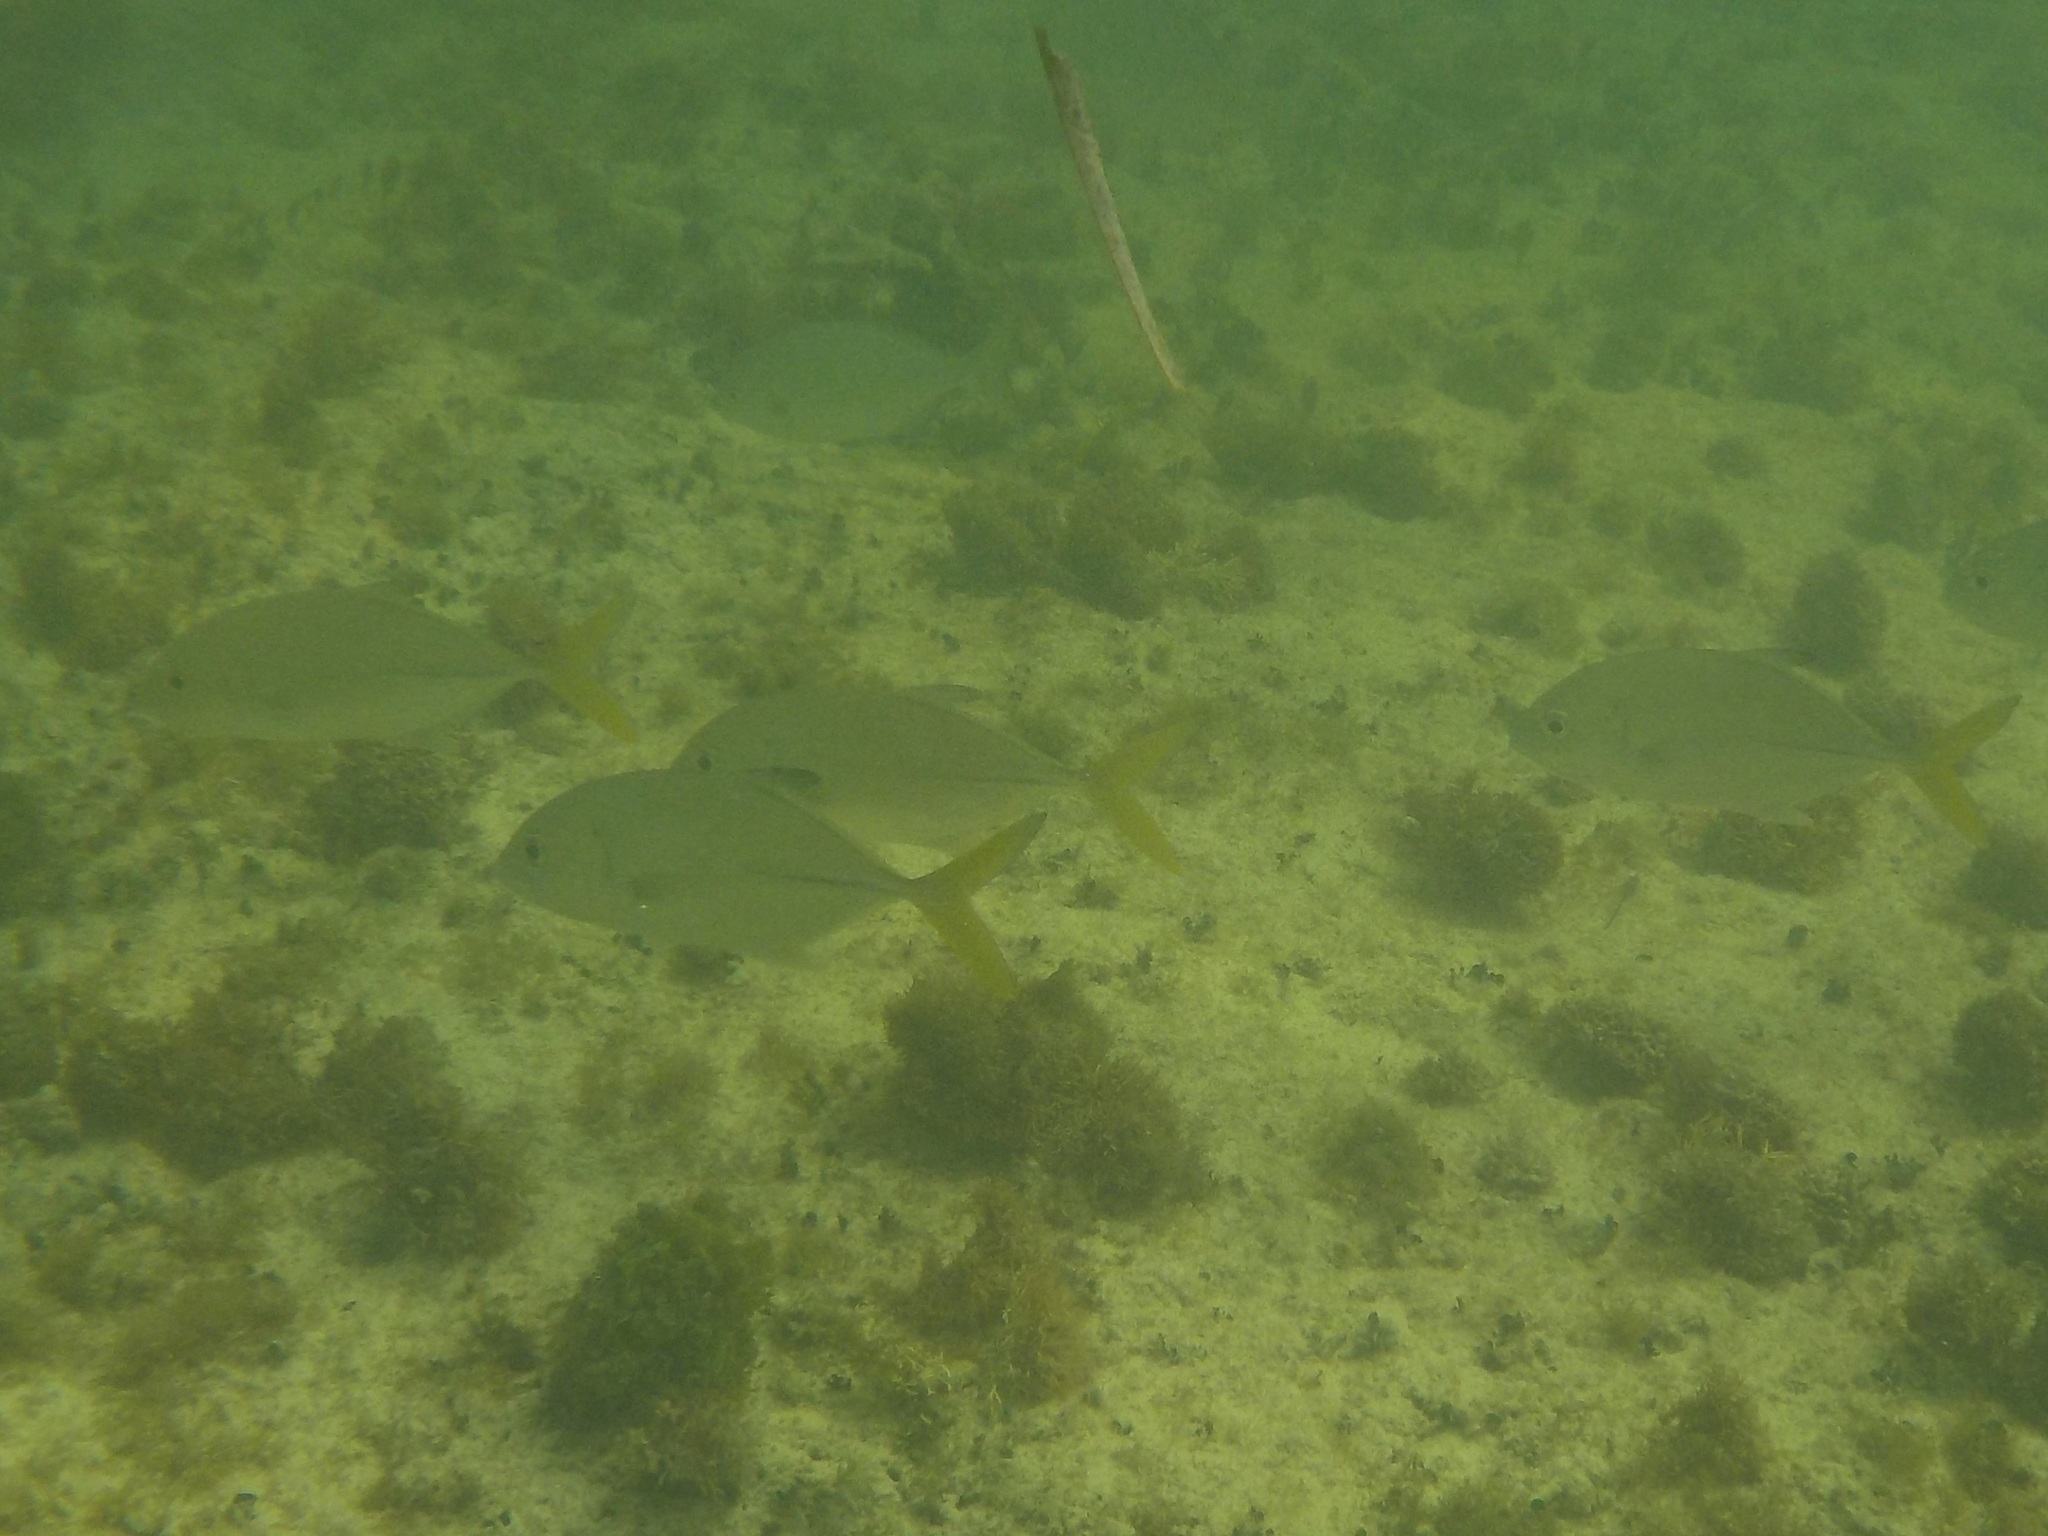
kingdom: Animalia
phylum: Chordata
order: Perciformes
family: Carangidae
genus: Caranx
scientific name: Caranx latus
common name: Horse eye jack
